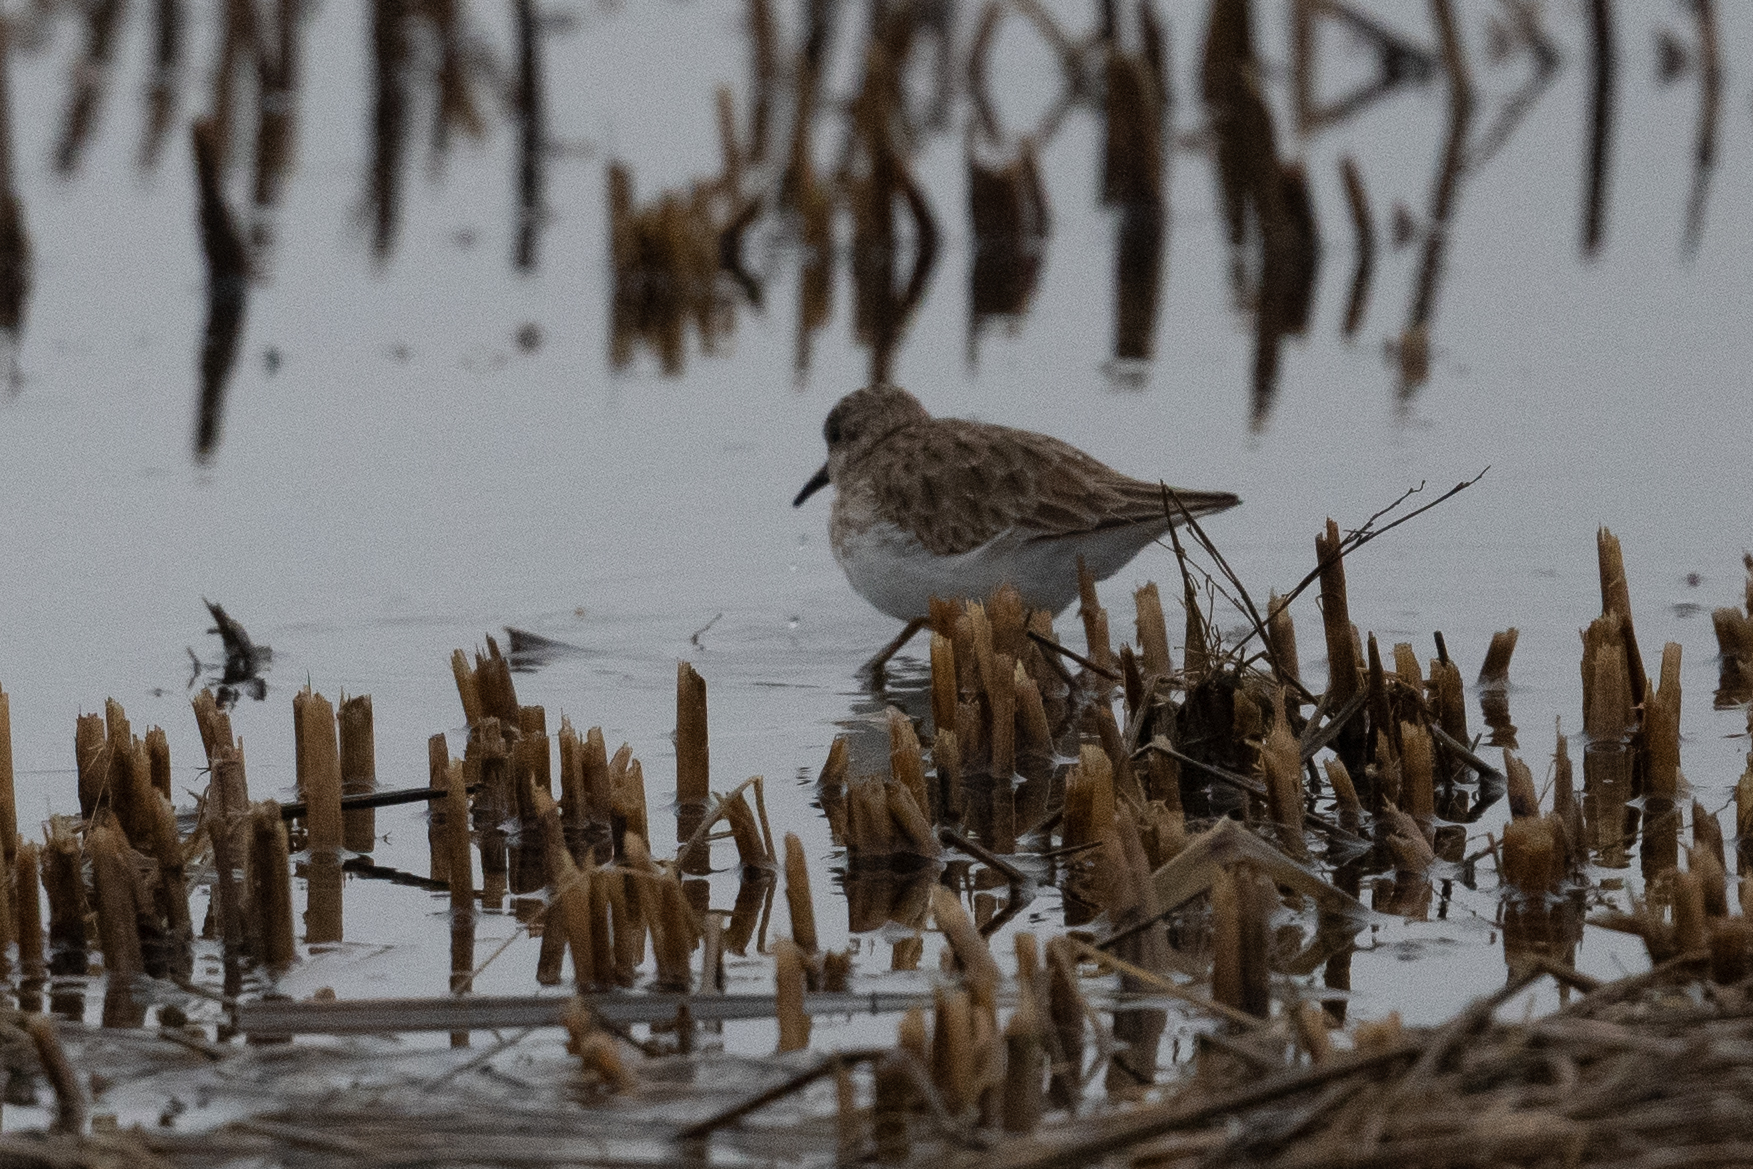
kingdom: Animalia
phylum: Chordata
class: Aves
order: Charadriiformes
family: Scolopacidae
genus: Calidris
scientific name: Calidris minutilla
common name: Least sandpiper
